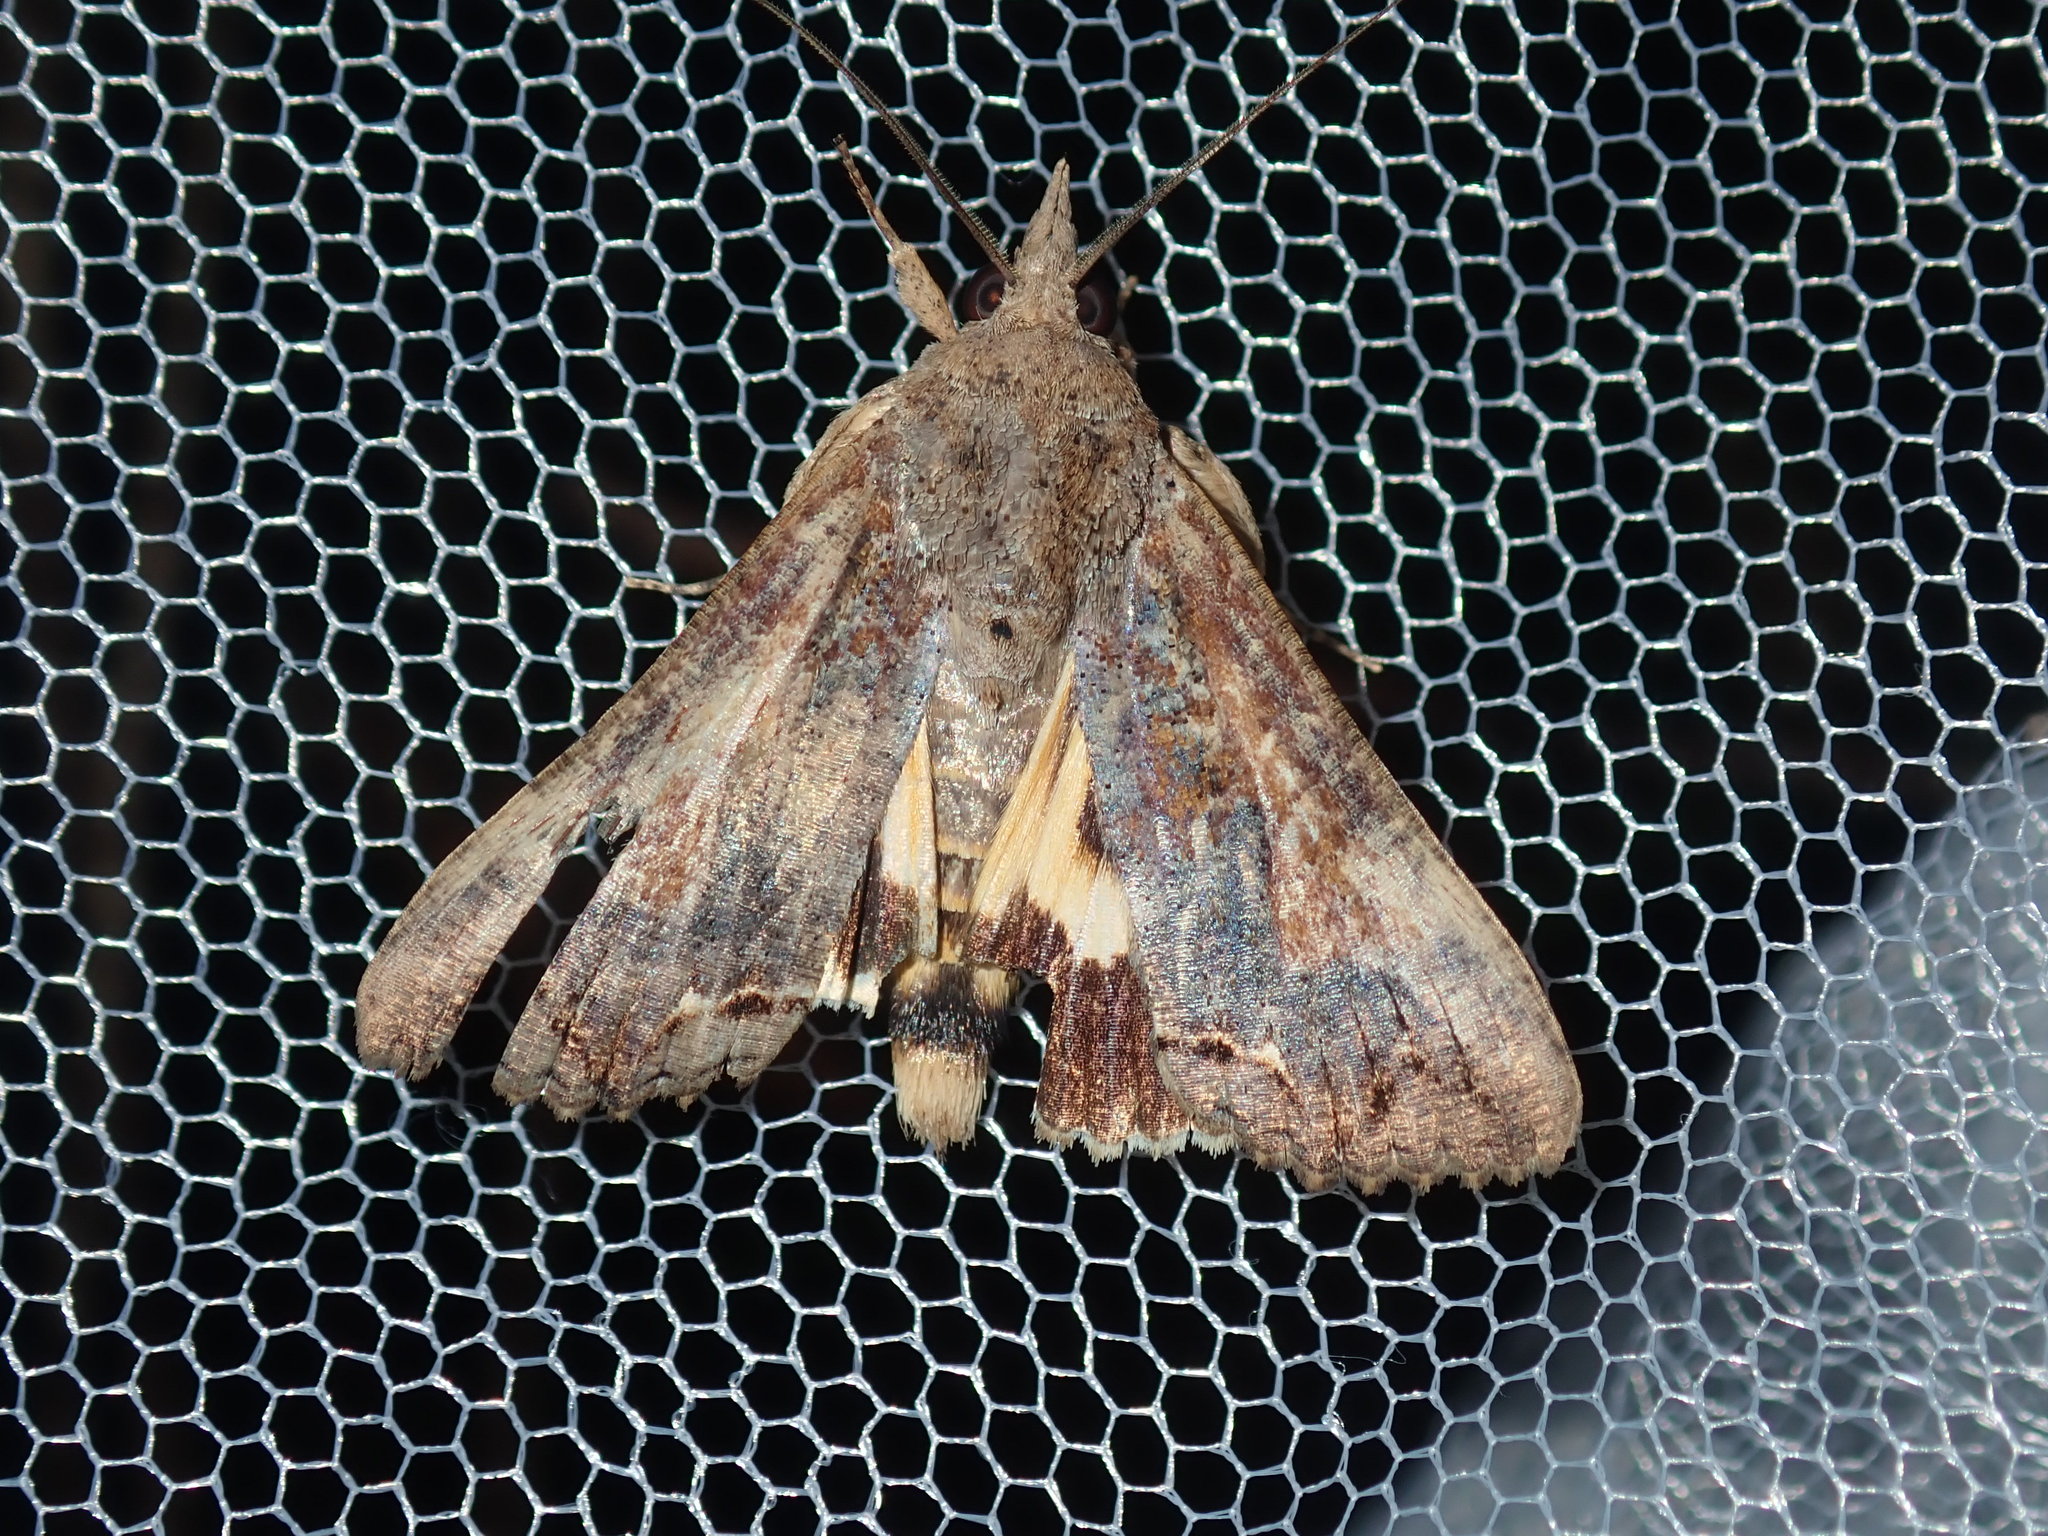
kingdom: Animalia
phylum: Arthropoda
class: Insecta
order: Lepidoptera
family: Erebidae
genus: Hypocala
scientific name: Hypocala deflorata
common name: Moth
